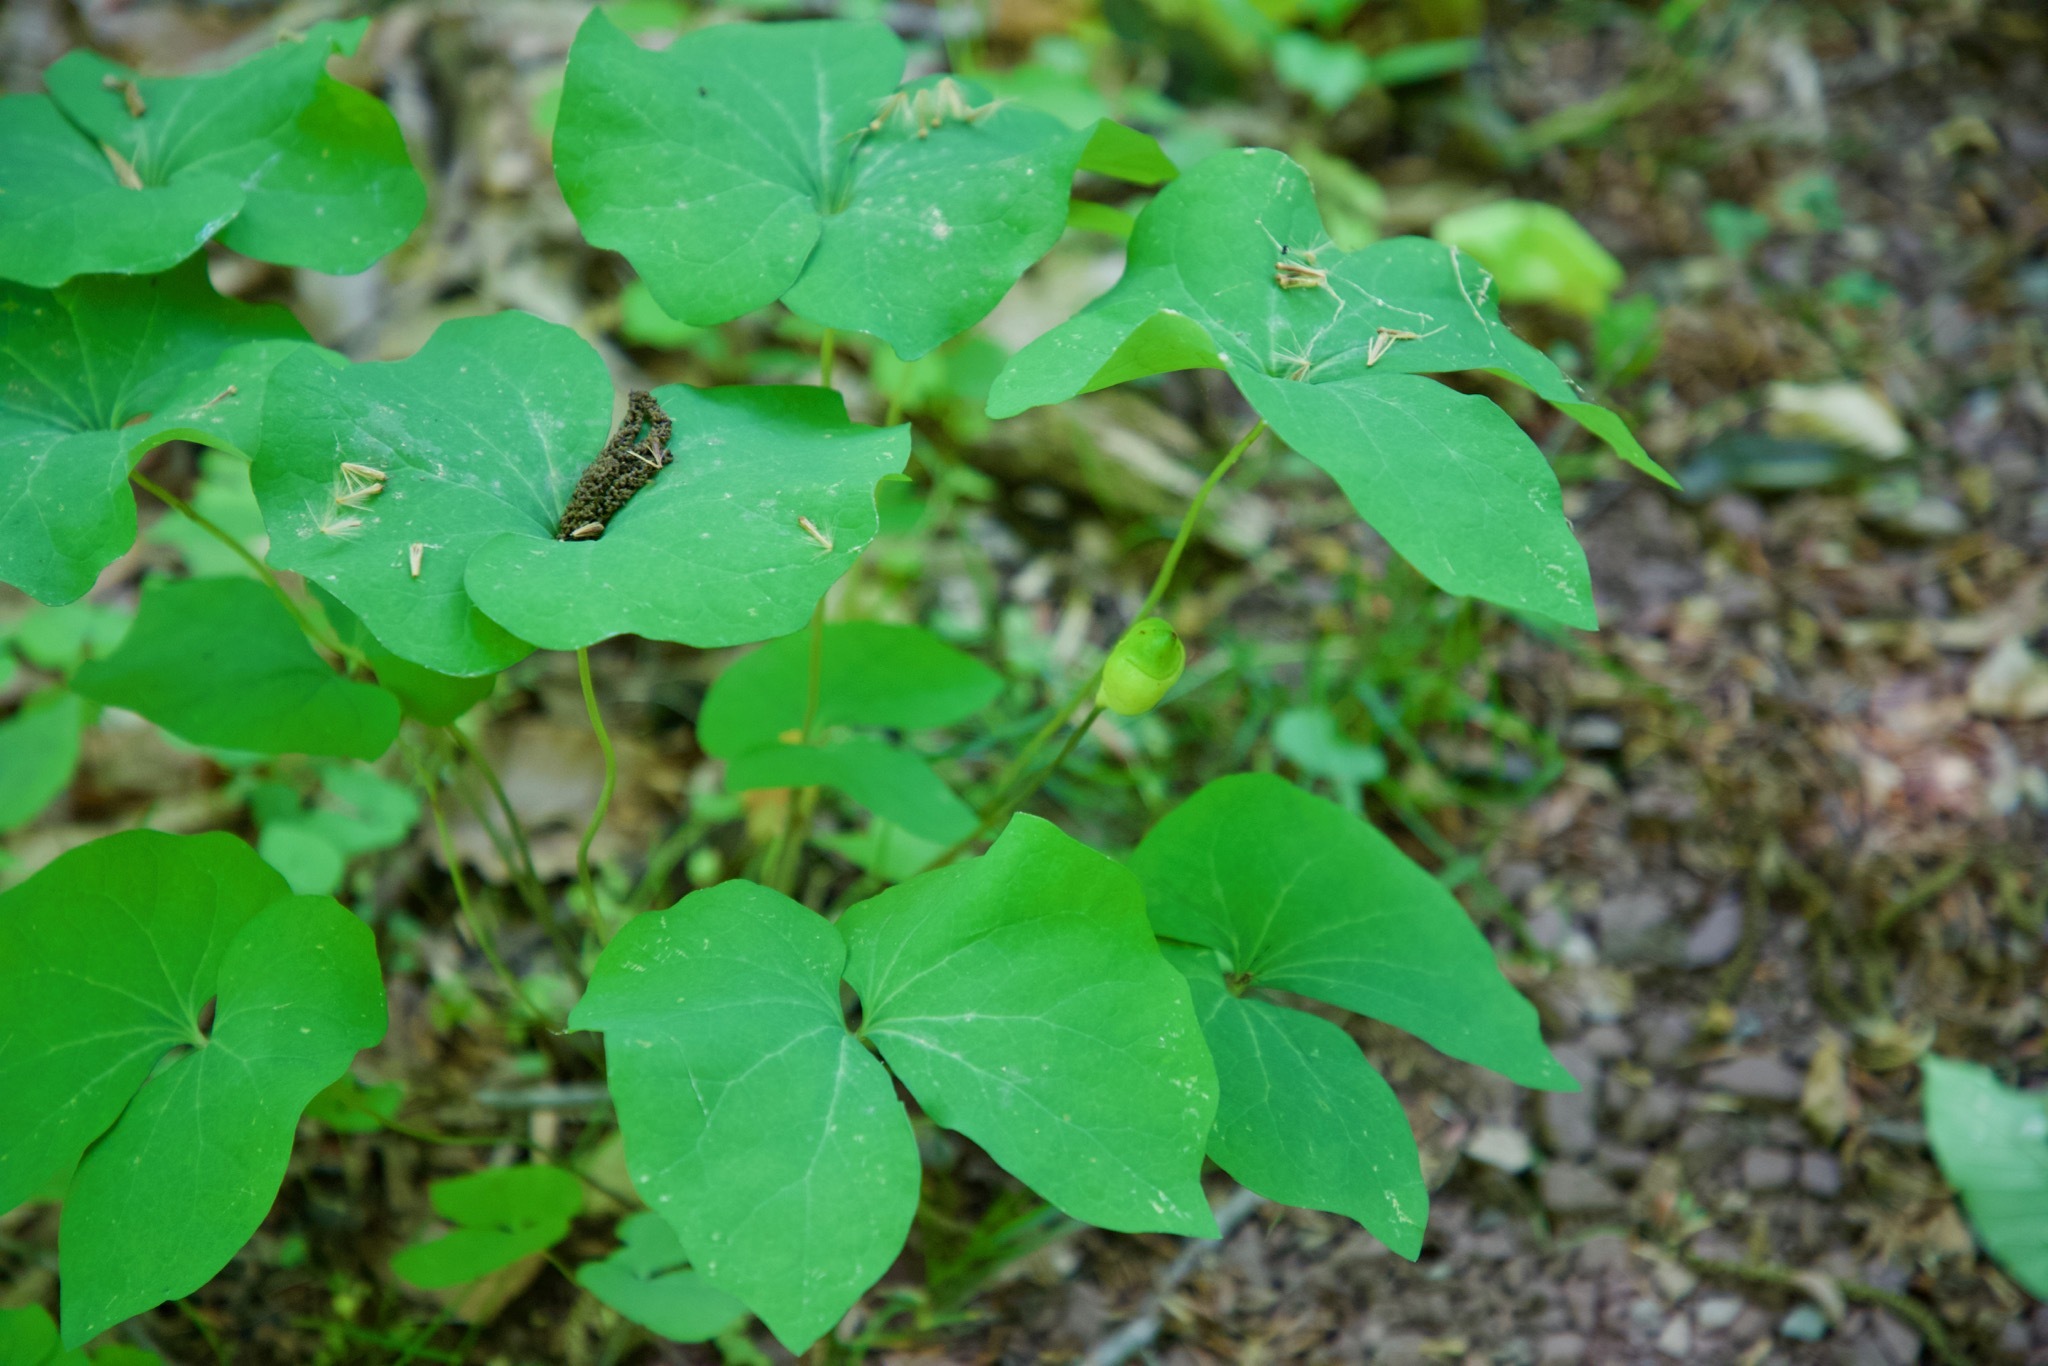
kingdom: Plantae
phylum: Tracheophyta
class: Magnoliopsida
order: Ranunculales
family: Berberidaceae
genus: Jeffersonia
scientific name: Jeffersonia diphylla
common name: Rheumatism-root
